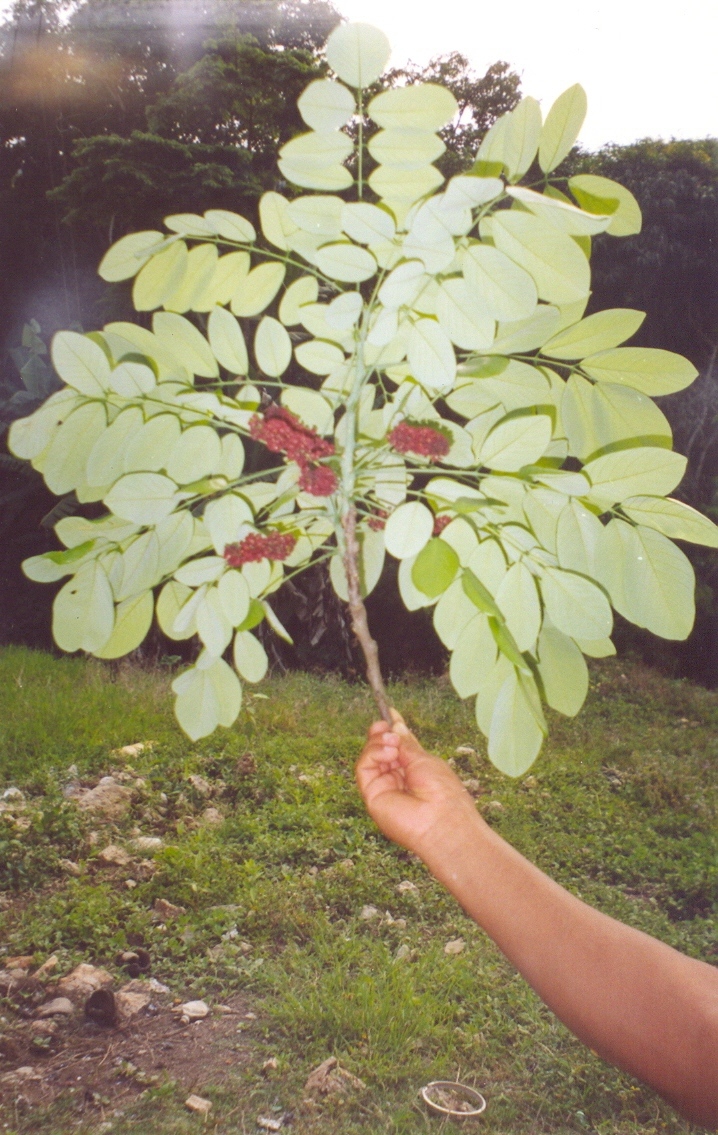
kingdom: Plantae
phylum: Tracheophyta
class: Magnoliopsida
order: Fabales
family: Fabaceae
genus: Lonchocarpus
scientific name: Lonchocarpus atropurpureus
